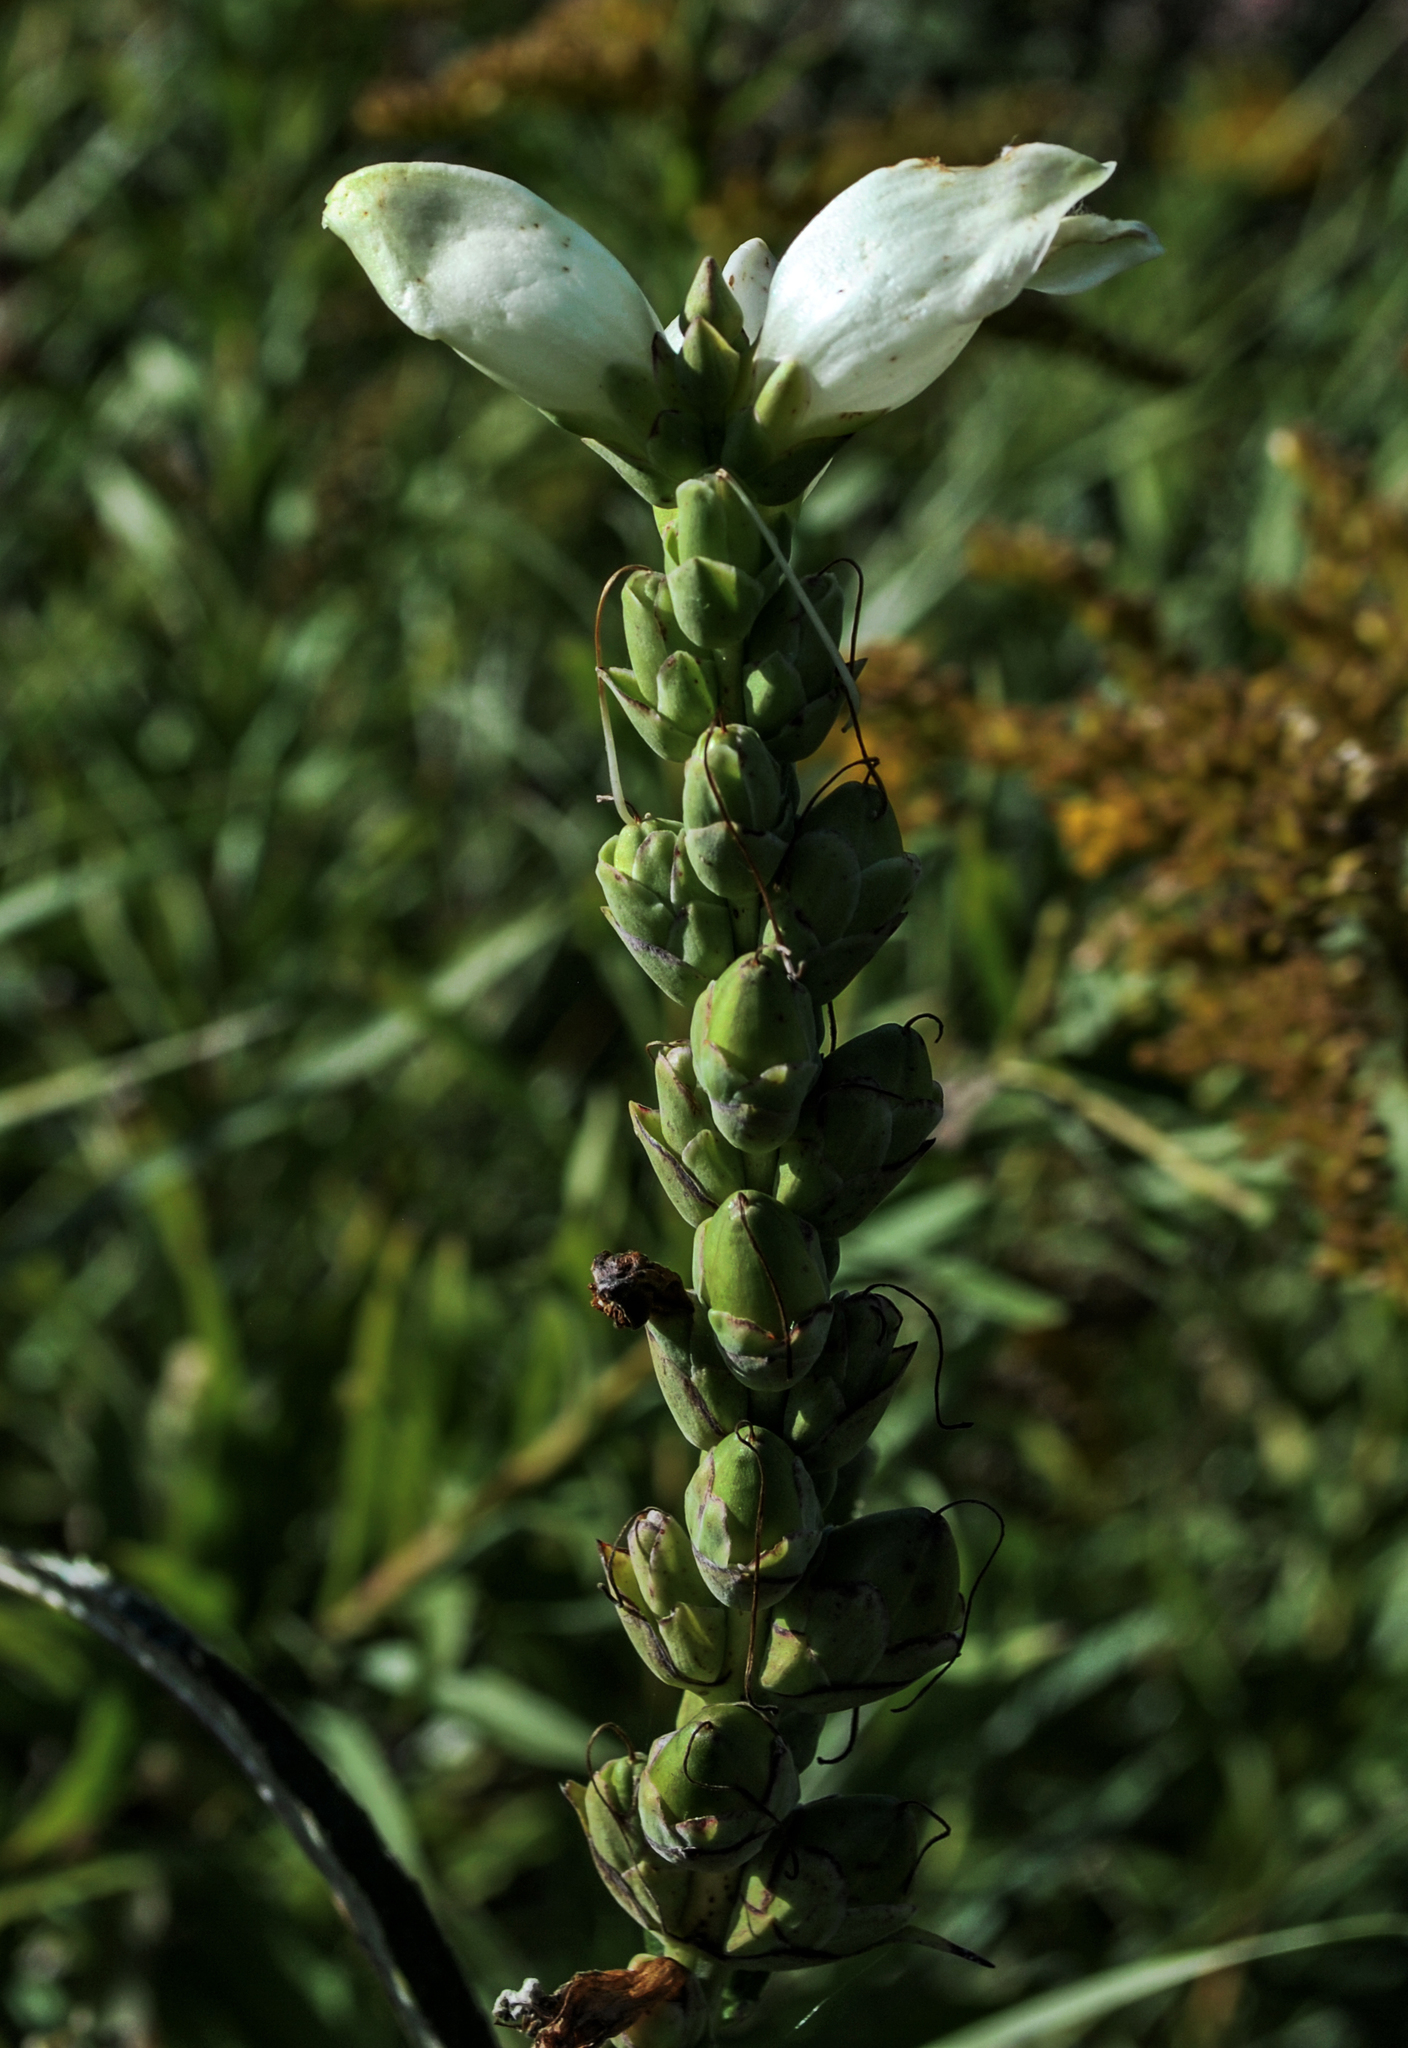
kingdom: Plantae
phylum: Tracheophyta
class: Magnoliopsida
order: Lamiales
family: Plantaginaceae
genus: Chelone
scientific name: Chelone glabra
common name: Snakehead
